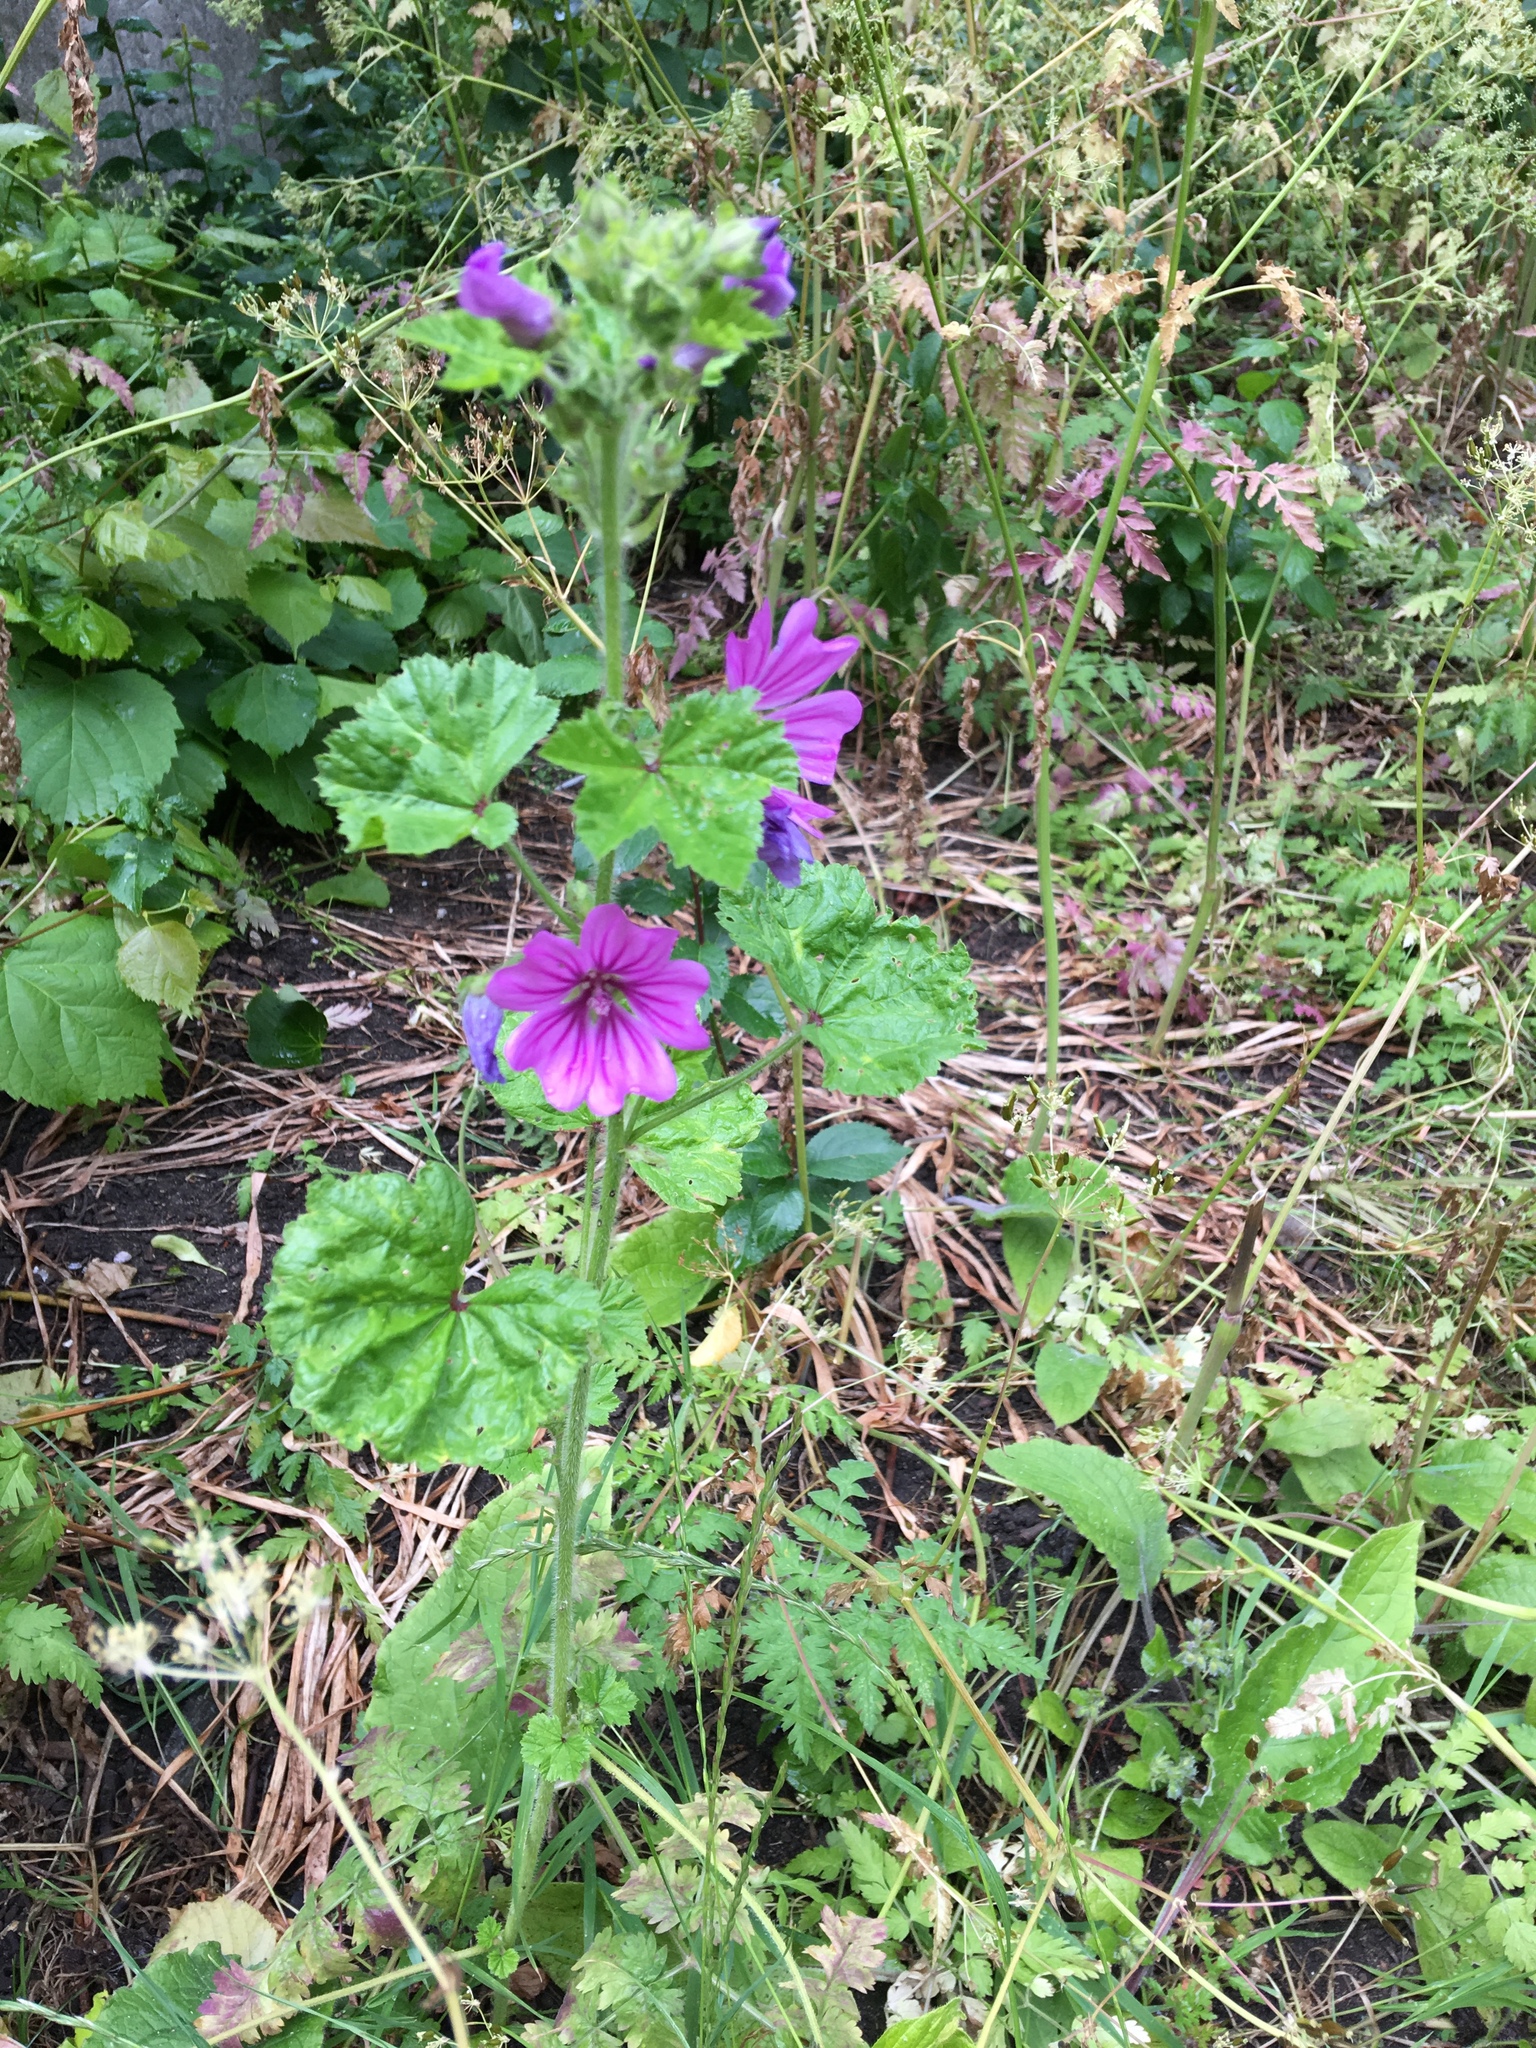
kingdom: Plantae
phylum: Tracheophyta
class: Magnoliopsida
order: Malvales
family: Malvaceae
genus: Malva
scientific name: Malva sylvestris
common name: Common mallow
